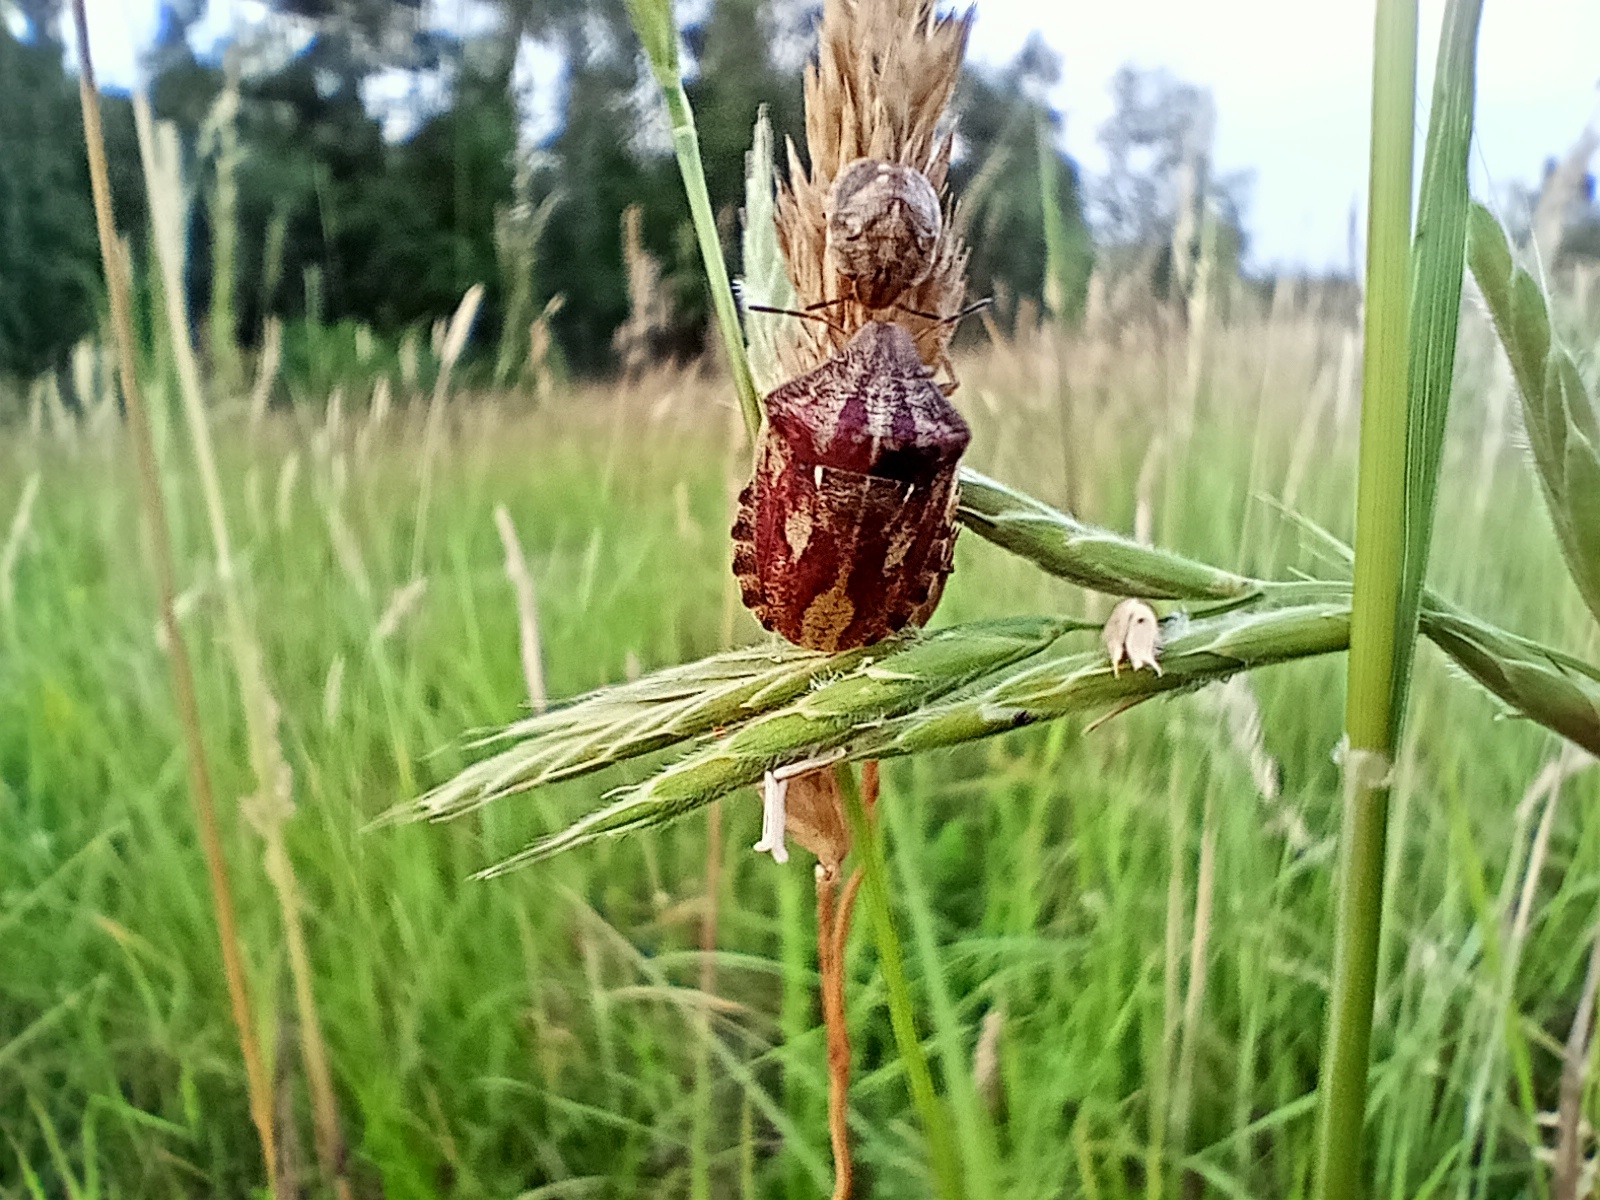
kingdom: Animalia
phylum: Arthropoda
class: Insecta
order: Hemiptera
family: Scutelleridae
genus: Eurygaster
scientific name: Eurygaster testudinaria
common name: Tortoise bug
